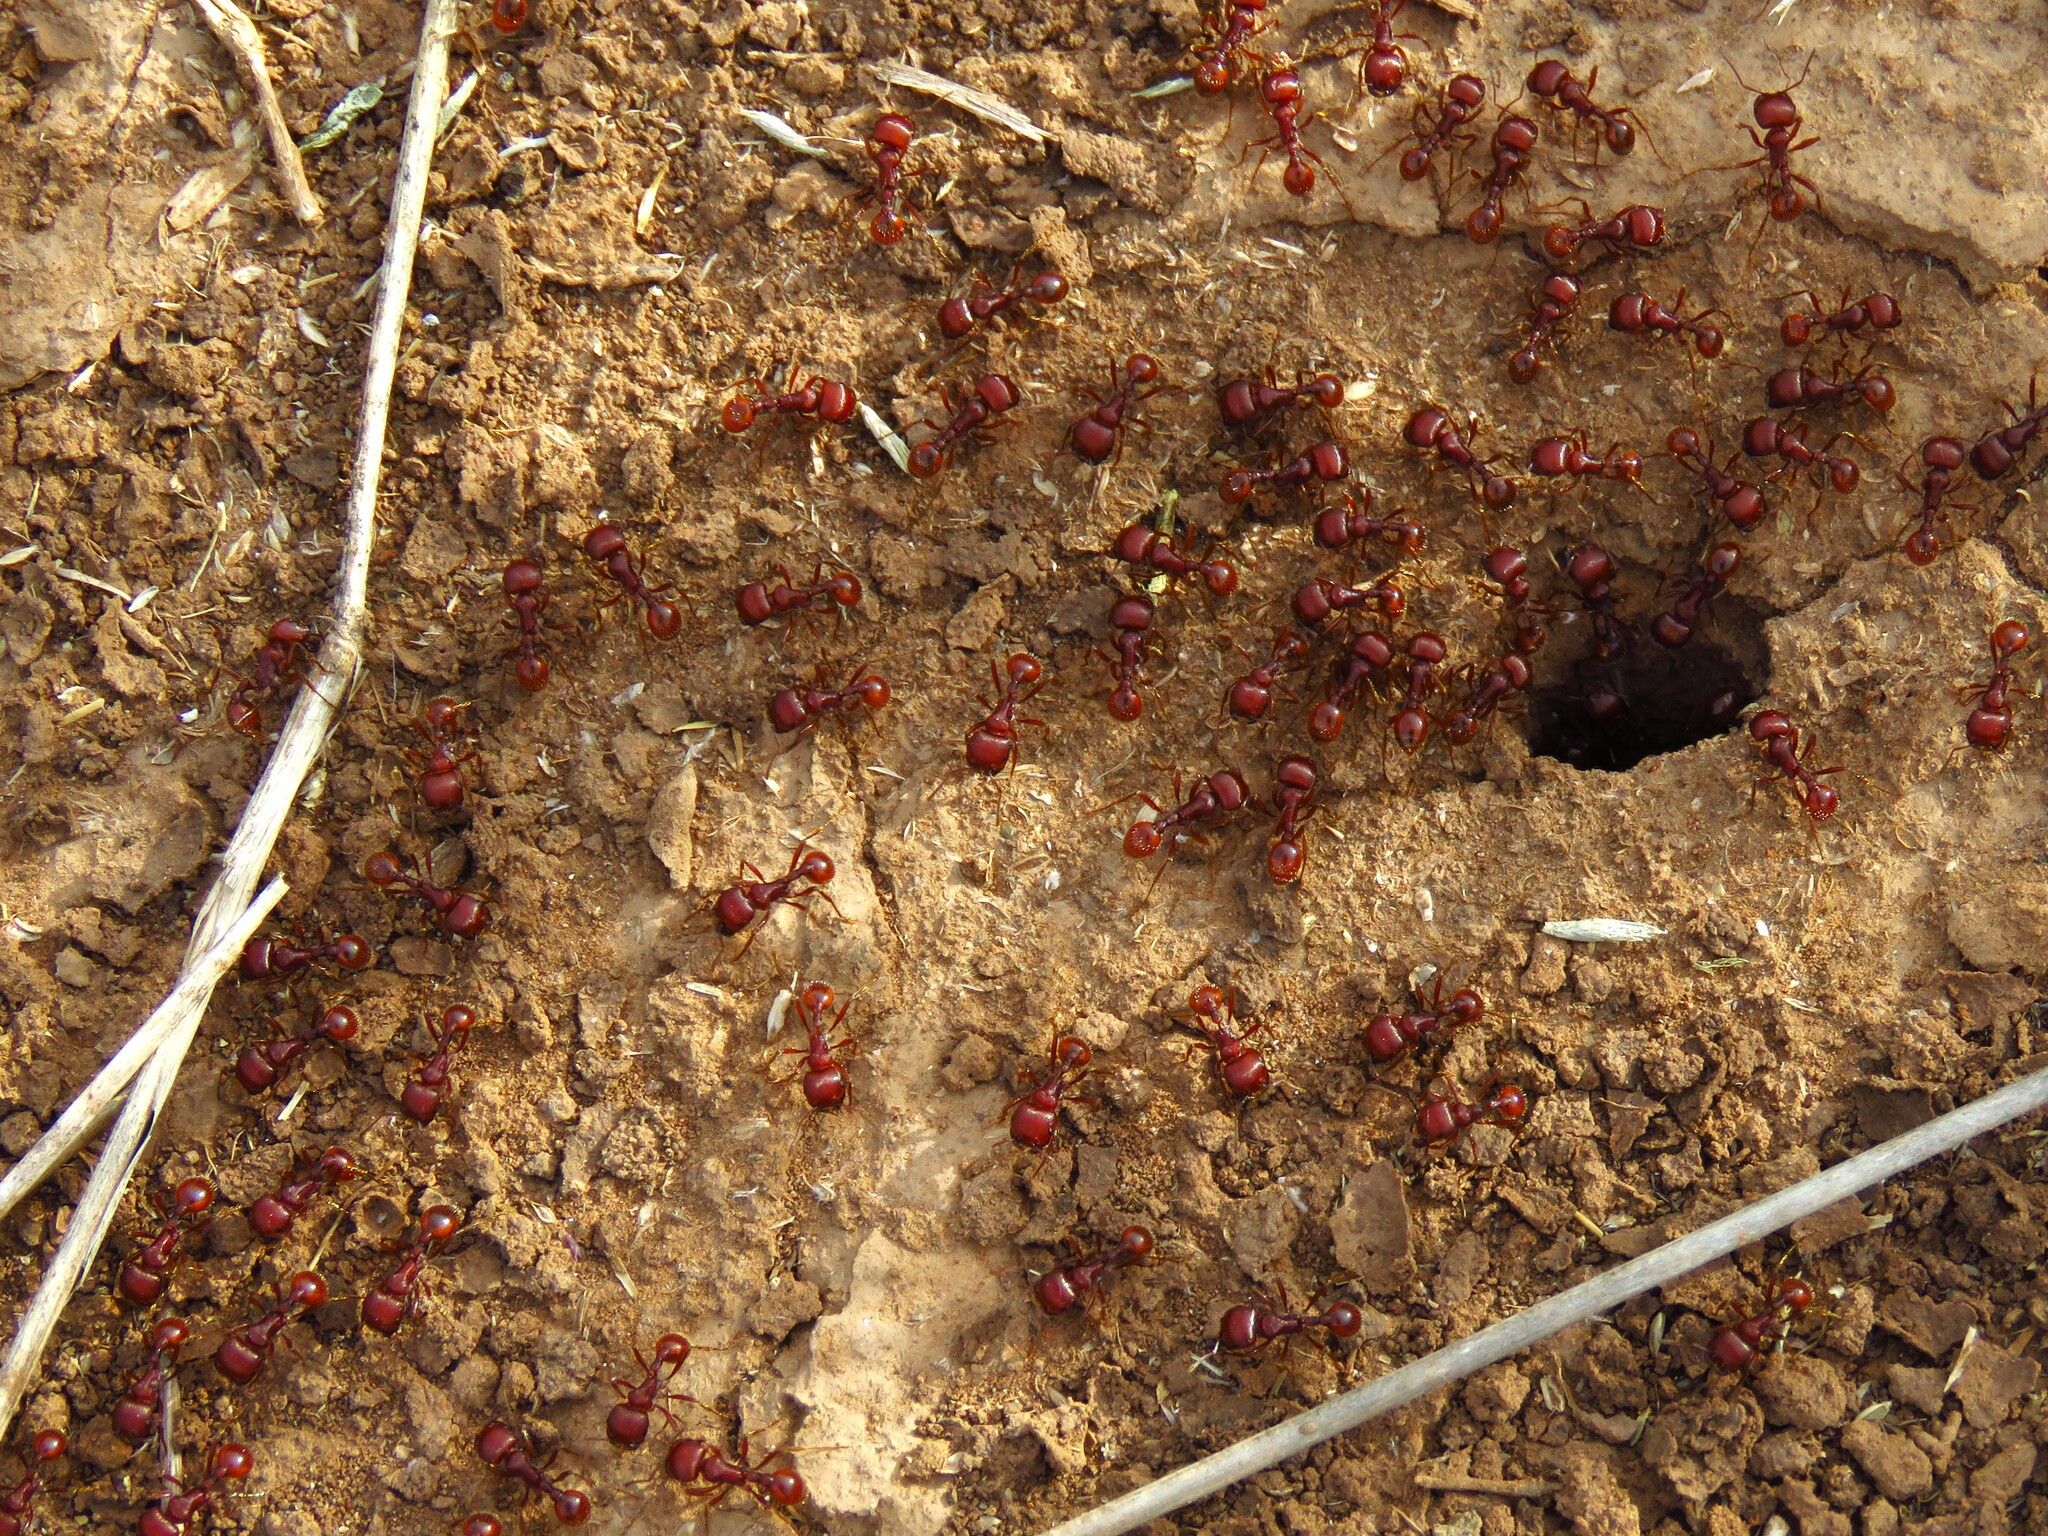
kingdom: Animalia
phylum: Arthropoda
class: Insecta
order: Hymenoptera
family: Formicidae
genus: Pogonomyrmex
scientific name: Pogonomyrmex barbatus
